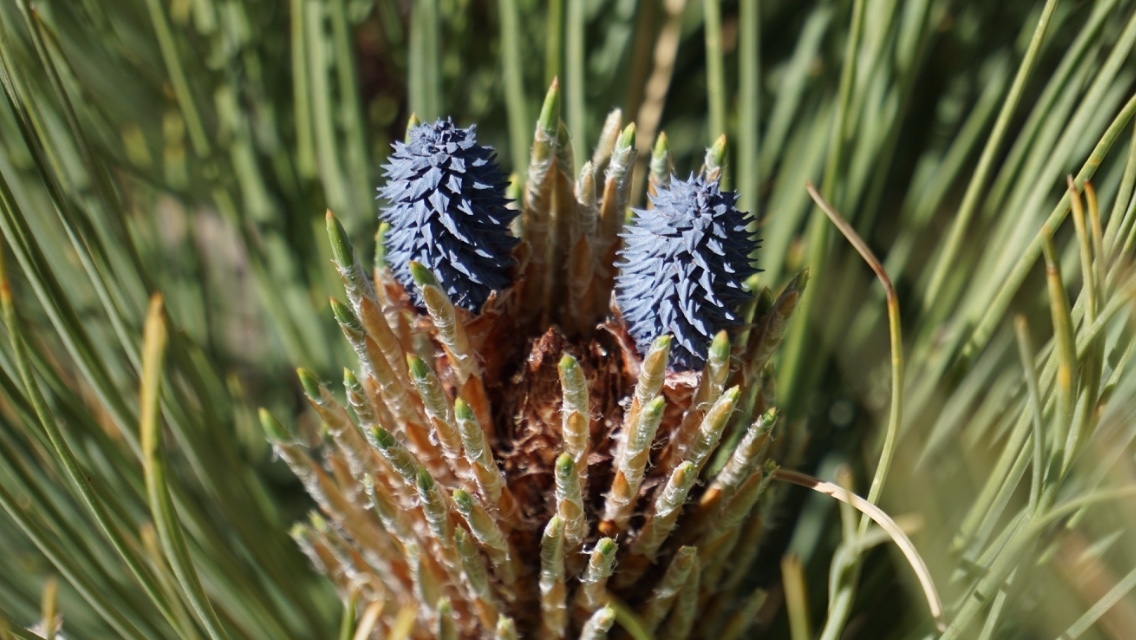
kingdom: Plantae
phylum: Tracheophyta
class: Pinopsida
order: Pinales
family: Pinaceae
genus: Pinus
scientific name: Pinus hartwegii
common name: Hartweg's pine
